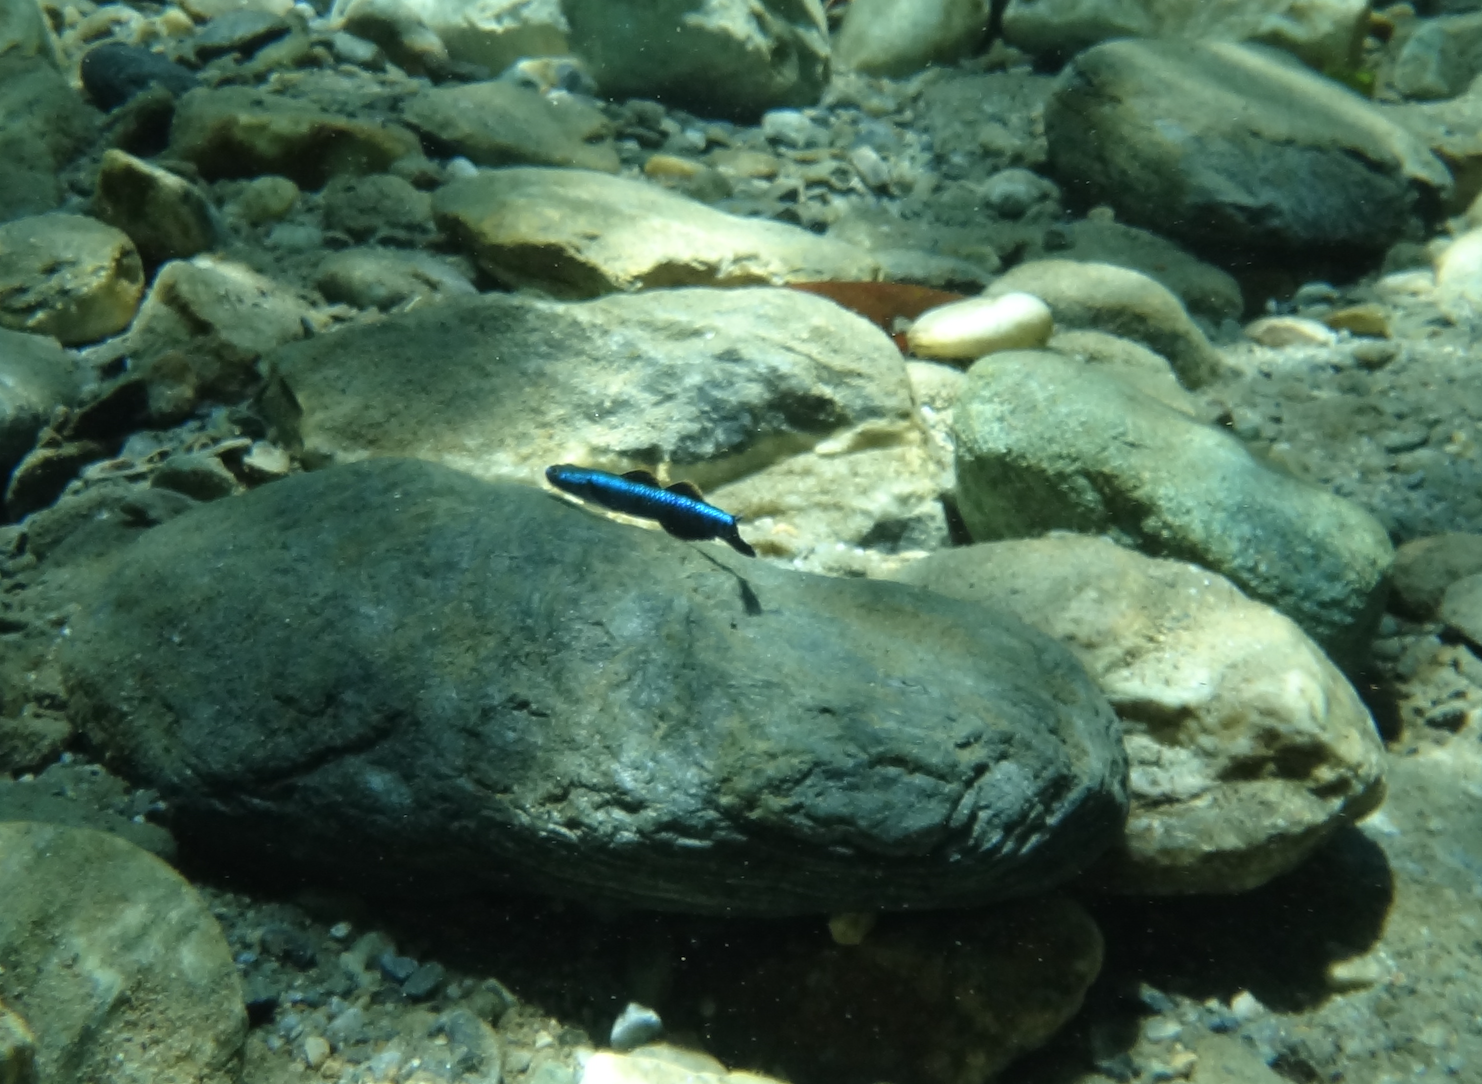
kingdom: Animalia
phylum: Chordata
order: Perciformes
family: Gobiidae
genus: Stiphodon
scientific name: Stiphodon atropurpureus
